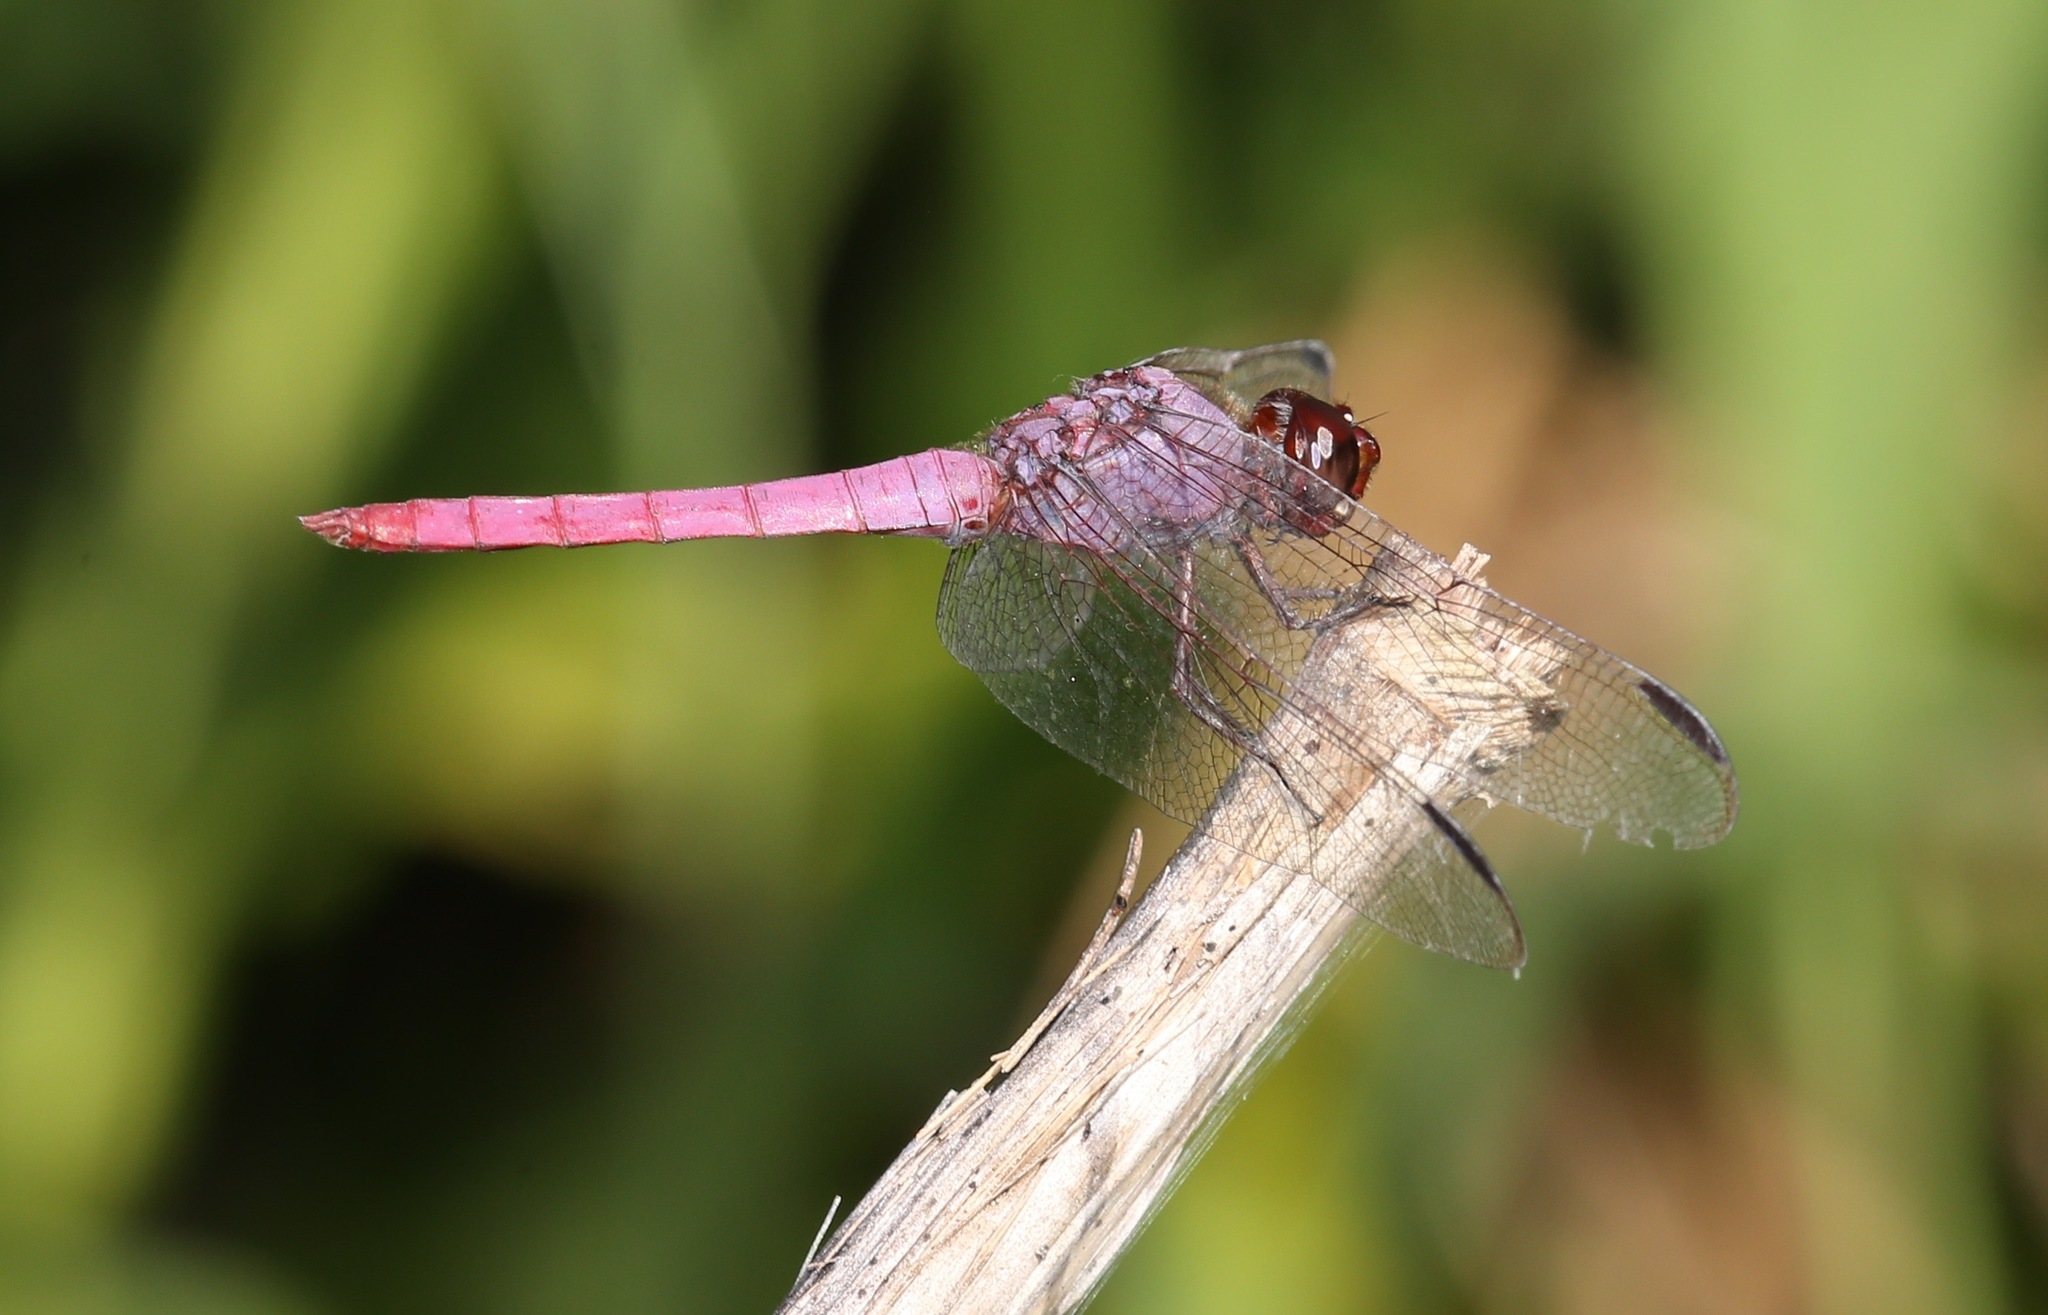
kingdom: Animalia
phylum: Arthropoda
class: Insecta
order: Odonata
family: Libellulidae
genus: Orthemis
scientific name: Orthemis ferruginea
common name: Roseate skimmer
